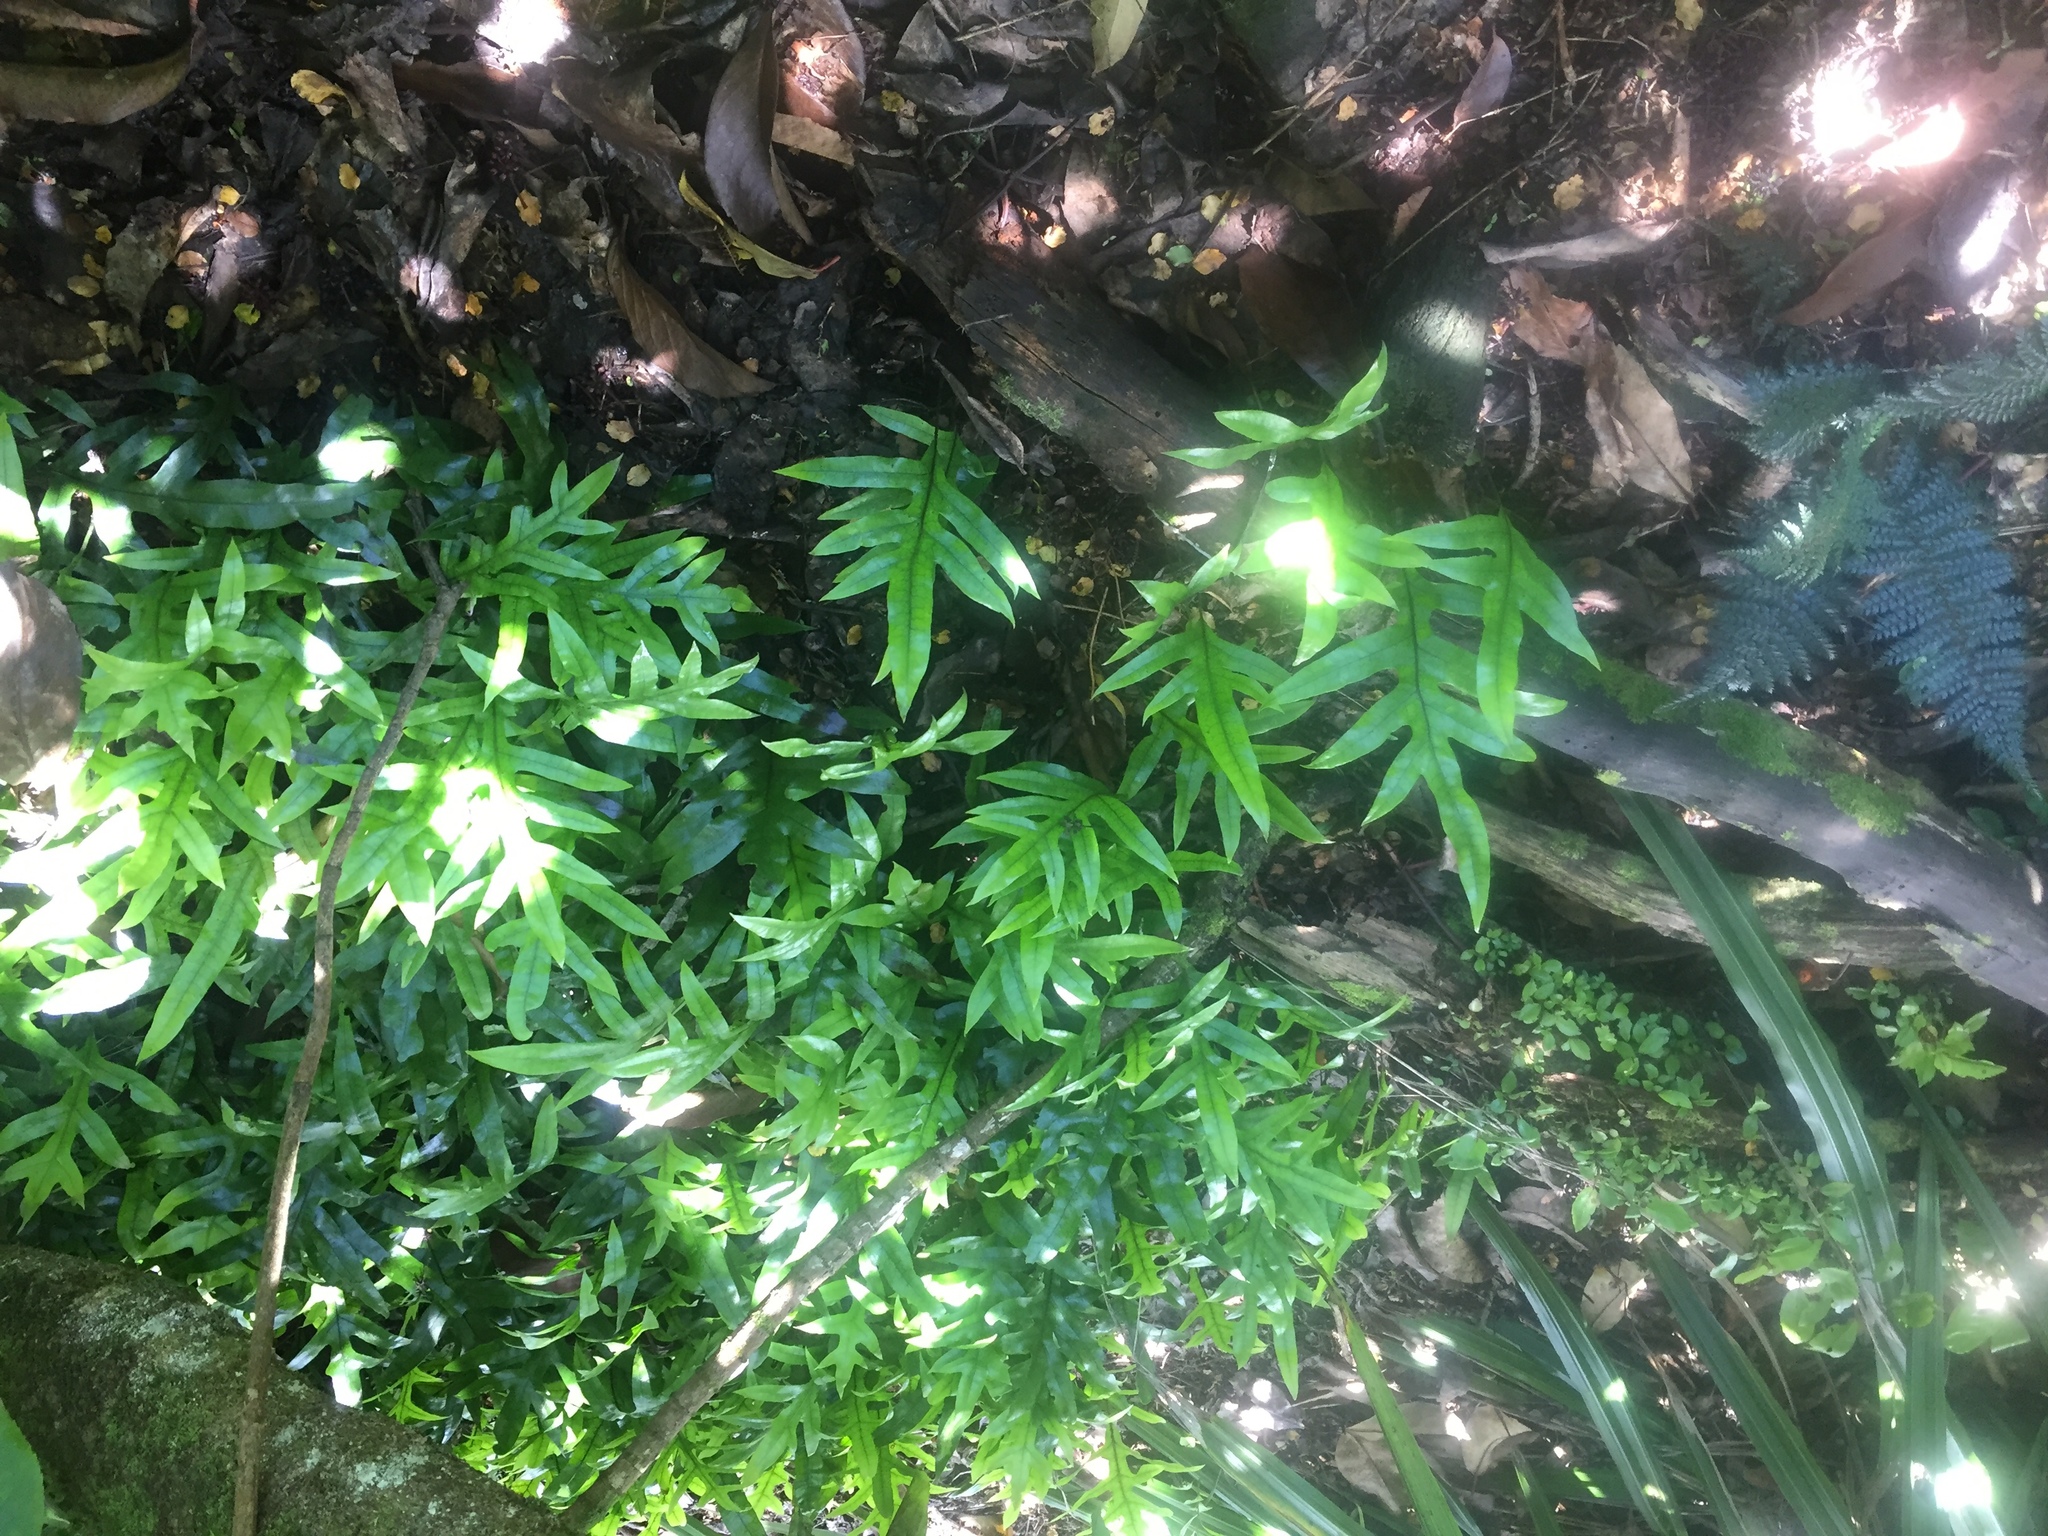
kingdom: Plantae
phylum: Tracheophyta
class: Polypodiopsida
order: Polypodiales
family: Polypodiaceae
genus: Lecanopteris
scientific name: Lecanopteris pustulata
